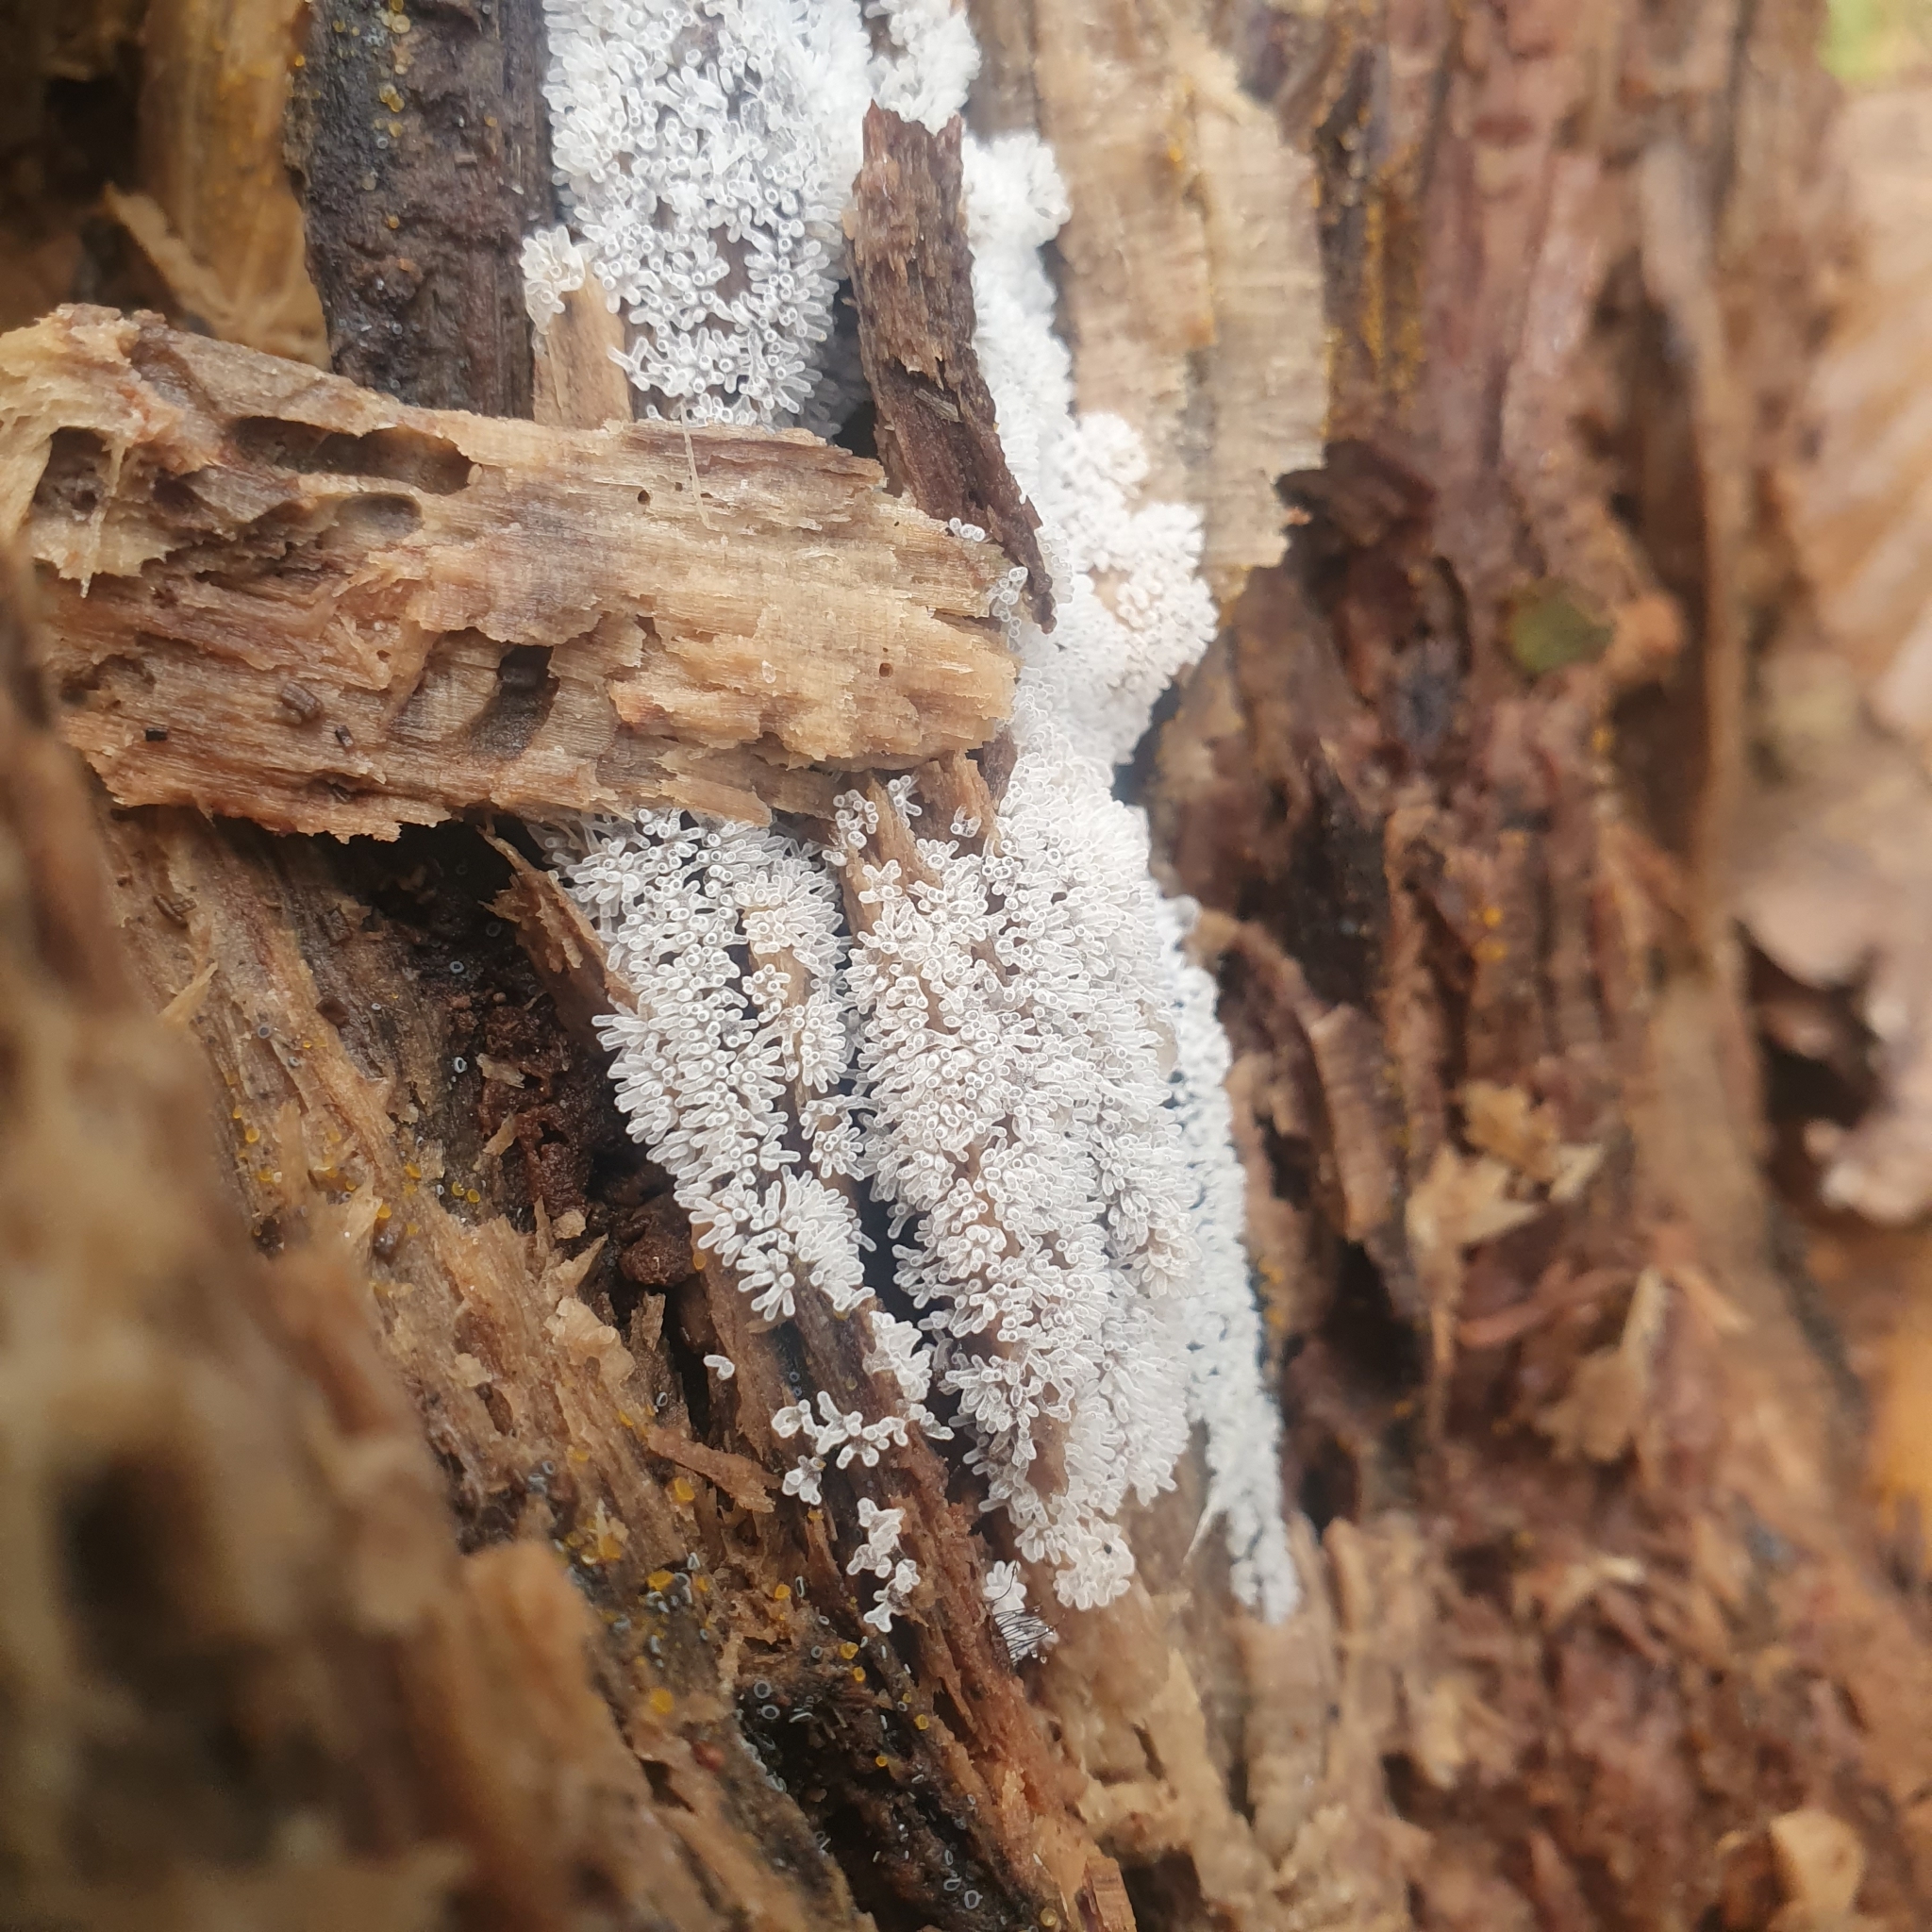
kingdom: Protozoa
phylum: Mycetozoa
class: Protosteliomycetes
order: Ceratiomyxales
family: Ceratiomyxaceae
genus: Ceratiomyxa
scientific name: Ceratiomyxa fruticulosa
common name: Honeycomb coral slime mold
